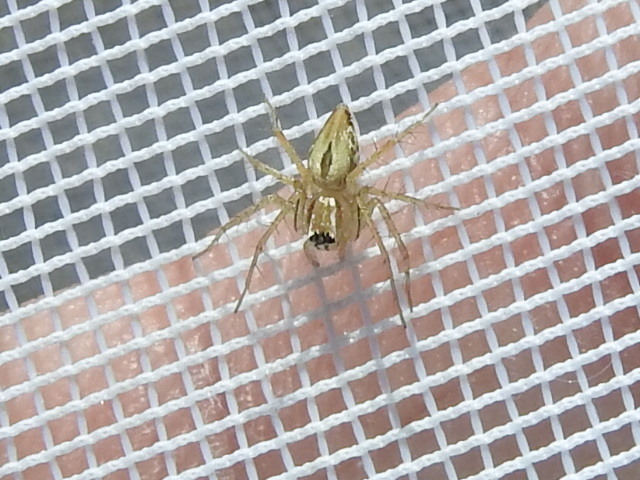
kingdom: Animalia
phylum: Arthropoda
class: Arachnida
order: Araneae
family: Oxyopidae
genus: Oxyopes
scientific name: Oxyopes salticus
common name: Lynx spiders
